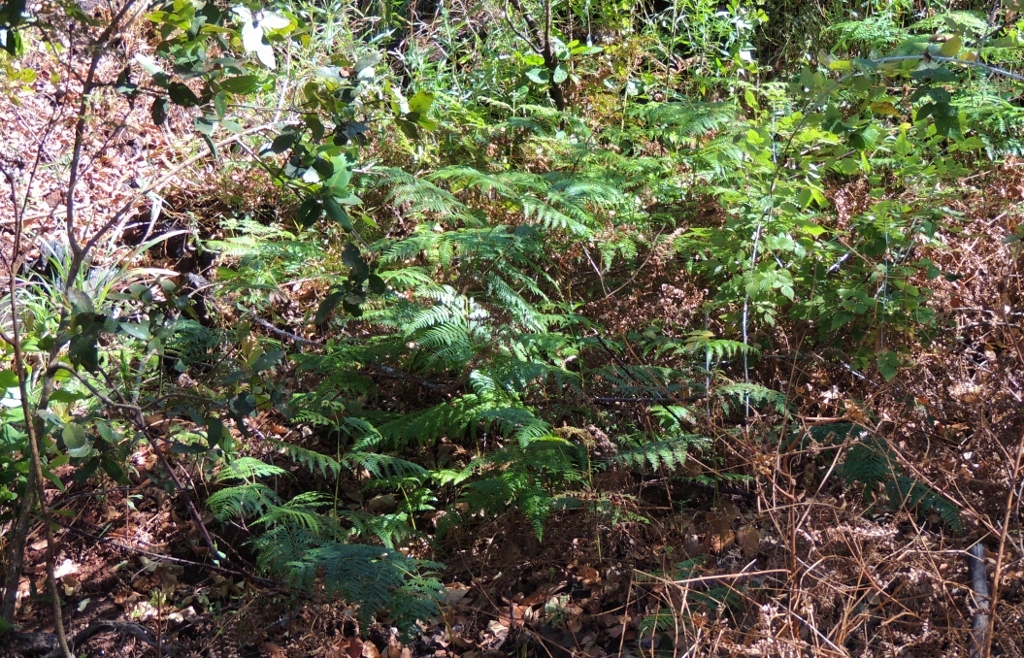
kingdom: Plantae
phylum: Tracheophyta
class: Polypodiopsida
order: Polypodiales
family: Dennstaedtiaceae
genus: Pteridium
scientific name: Pteridium aquilinum
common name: Bracken
